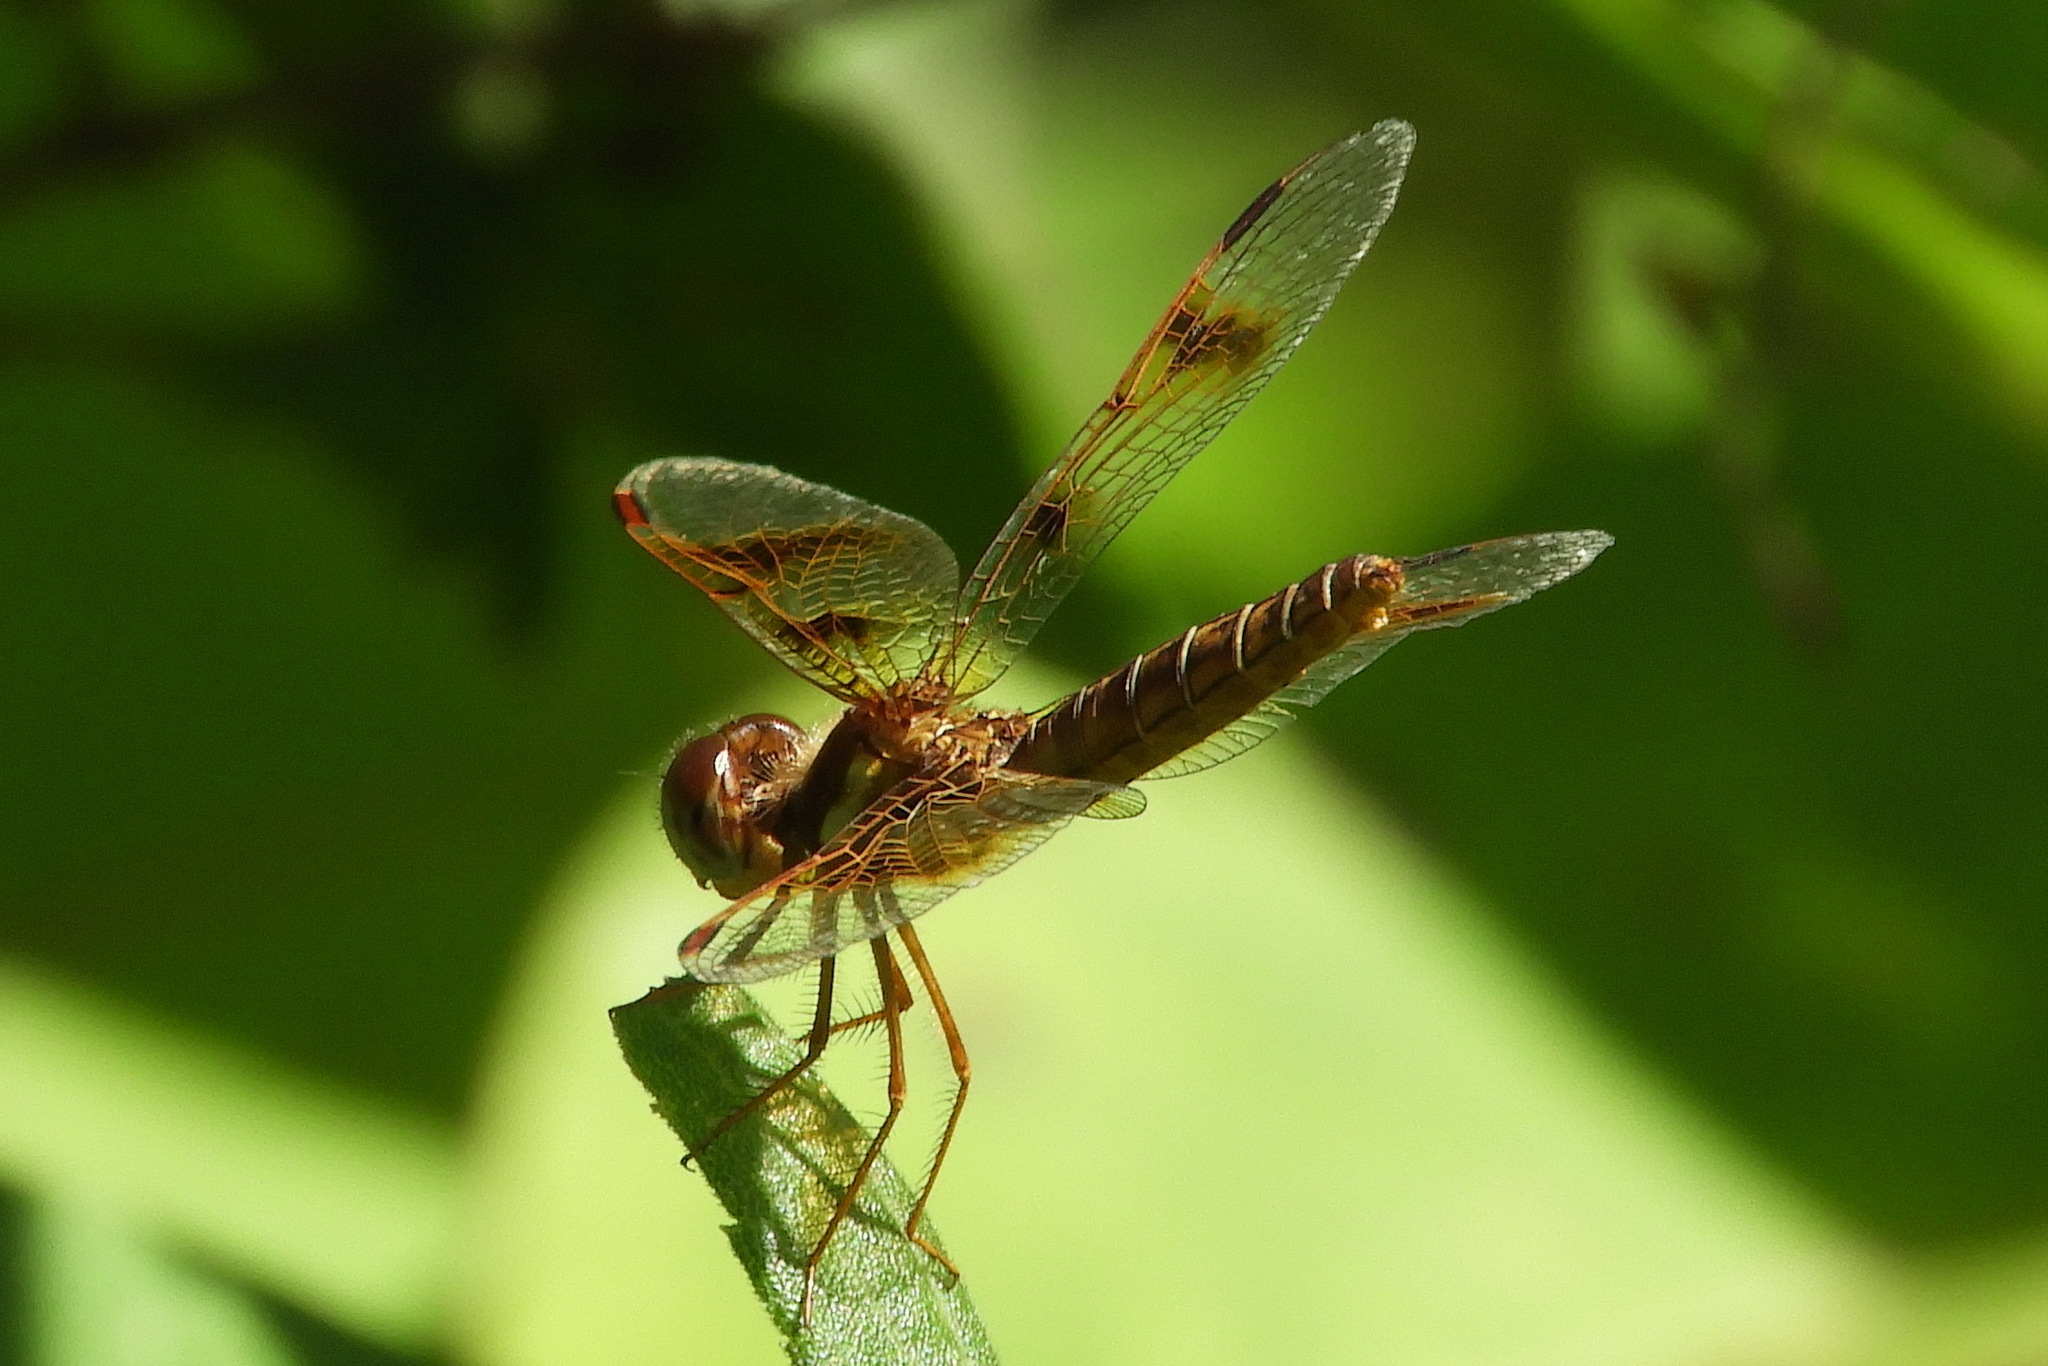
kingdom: Animalia
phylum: Arthropoda
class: Insecta
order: Odonata
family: Libellulidae
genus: Perithemis
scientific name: Perithemis tenera
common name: Eastern amberwing
